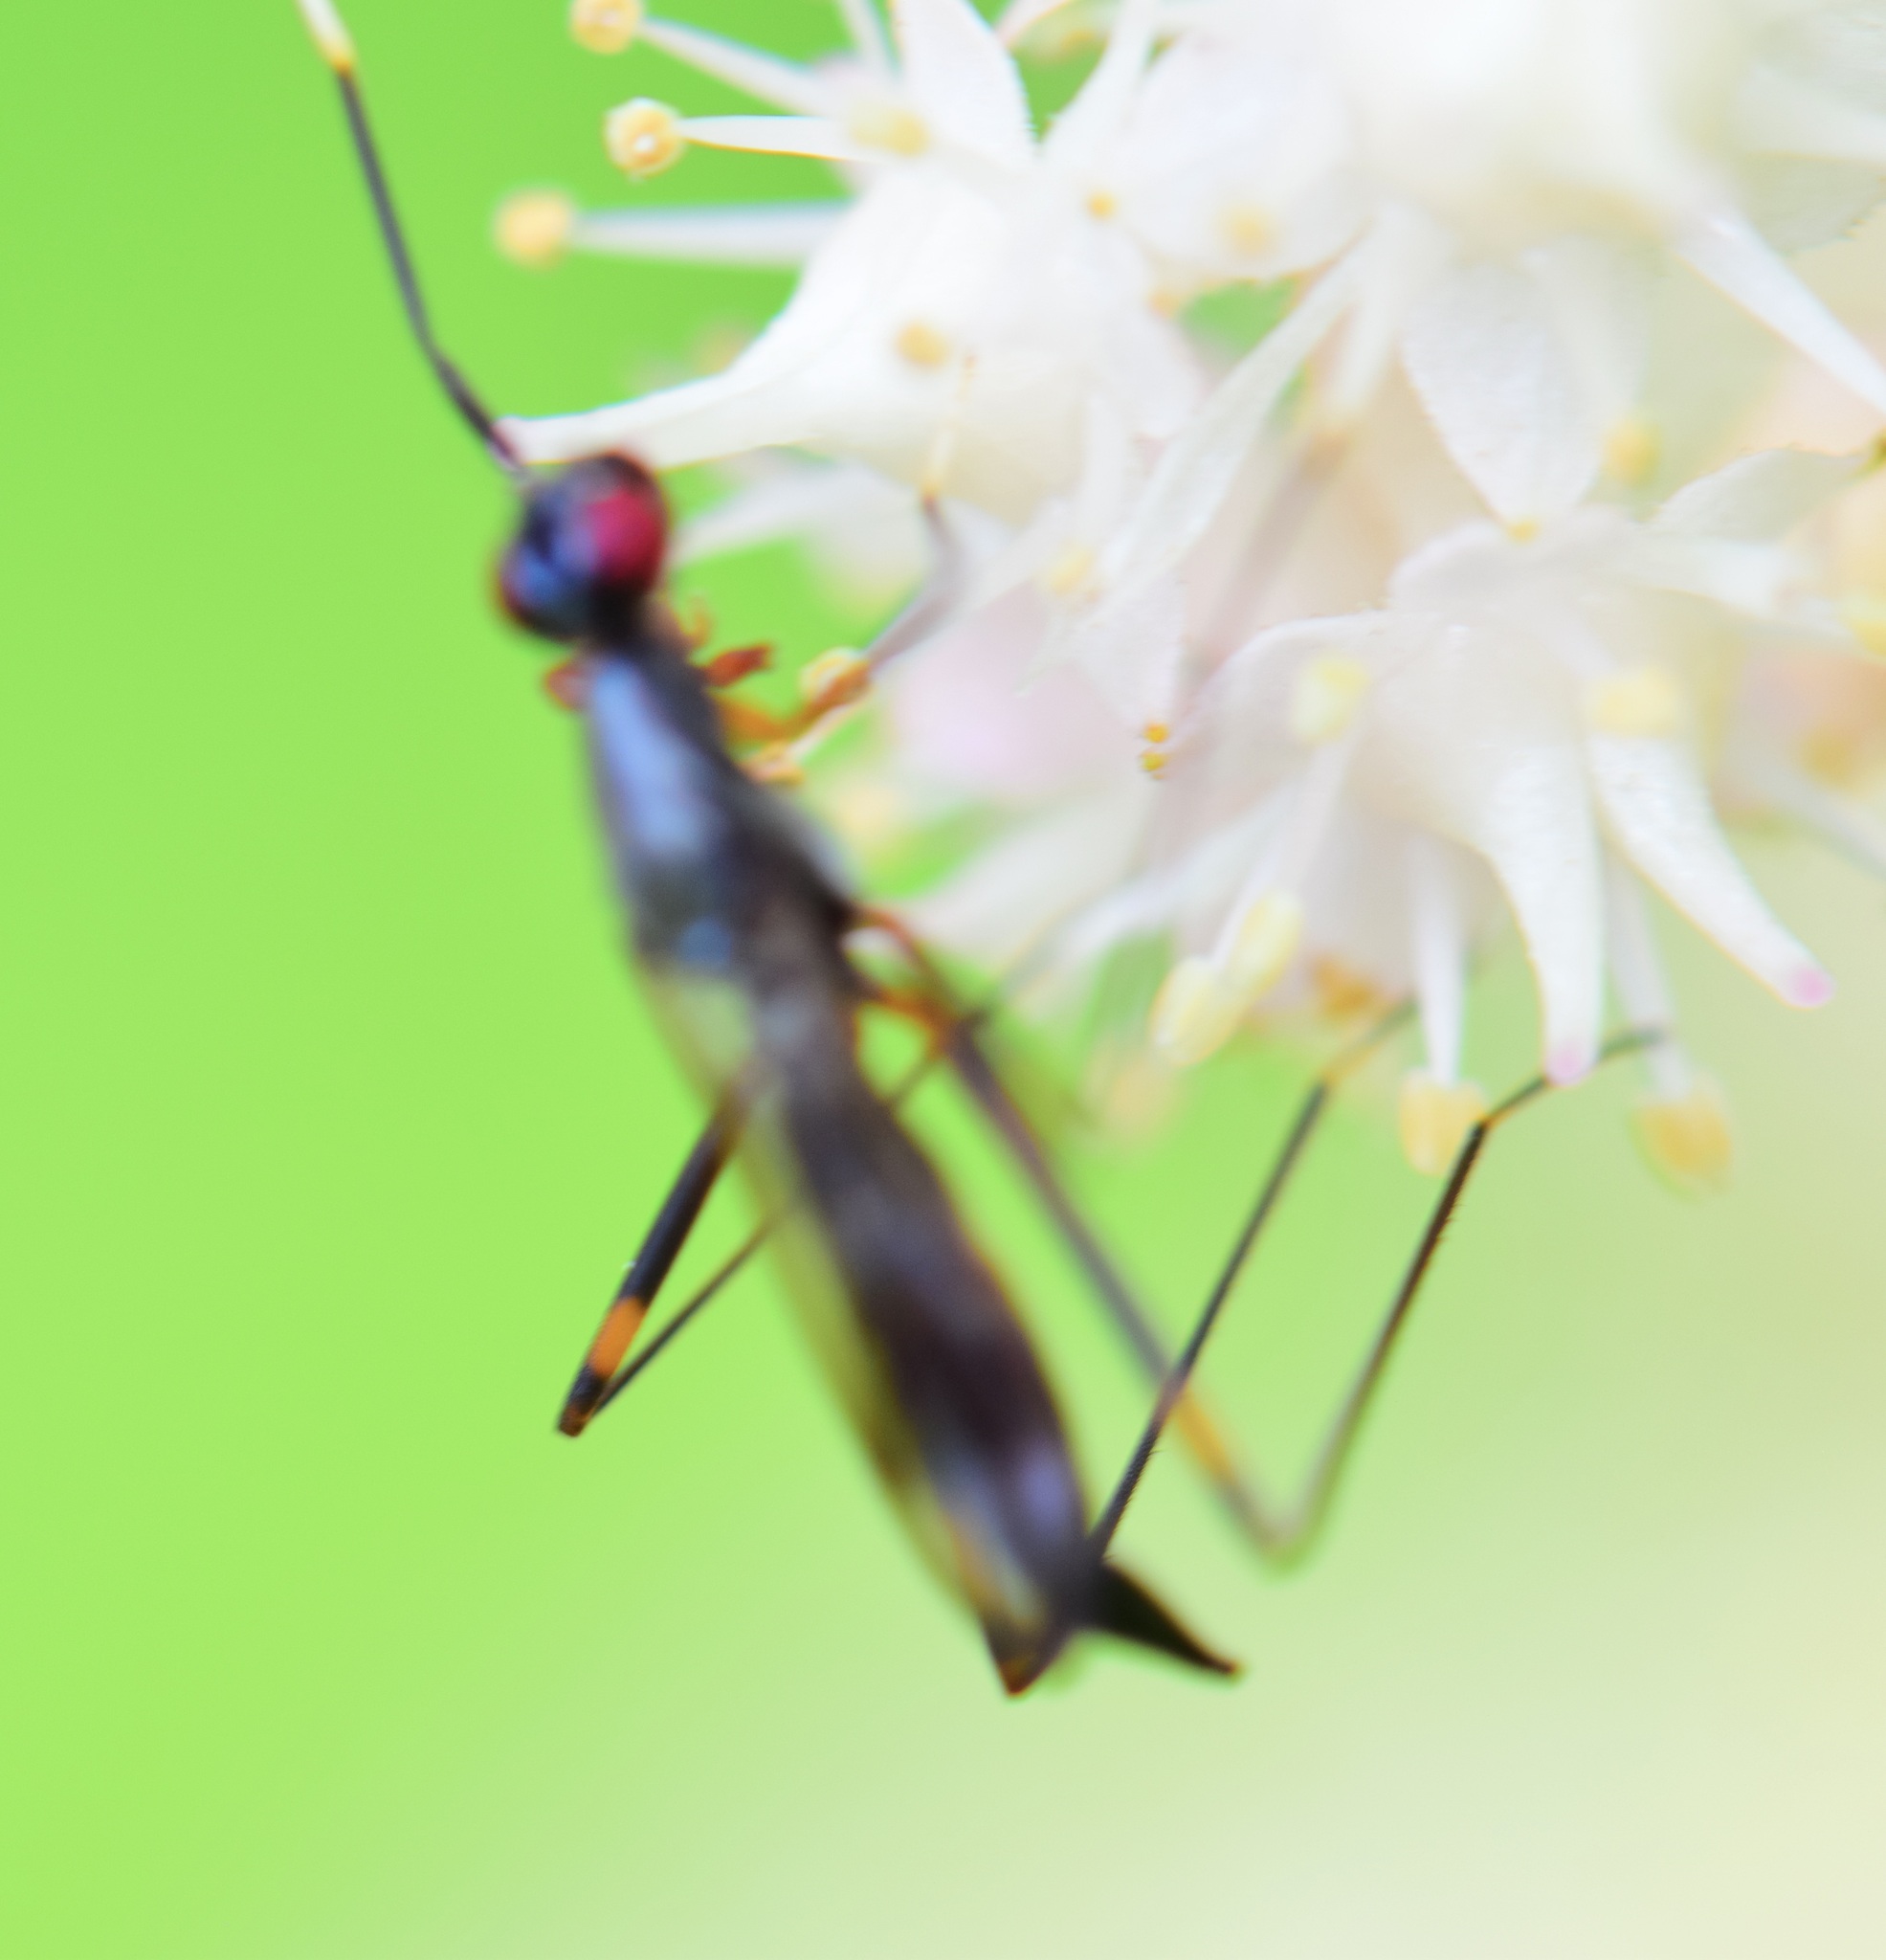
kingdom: Animalia
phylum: Arthropoda
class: Insecta
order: Diptera
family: Micropezidae
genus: Rainieria
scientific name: Rainieria antennaepes
